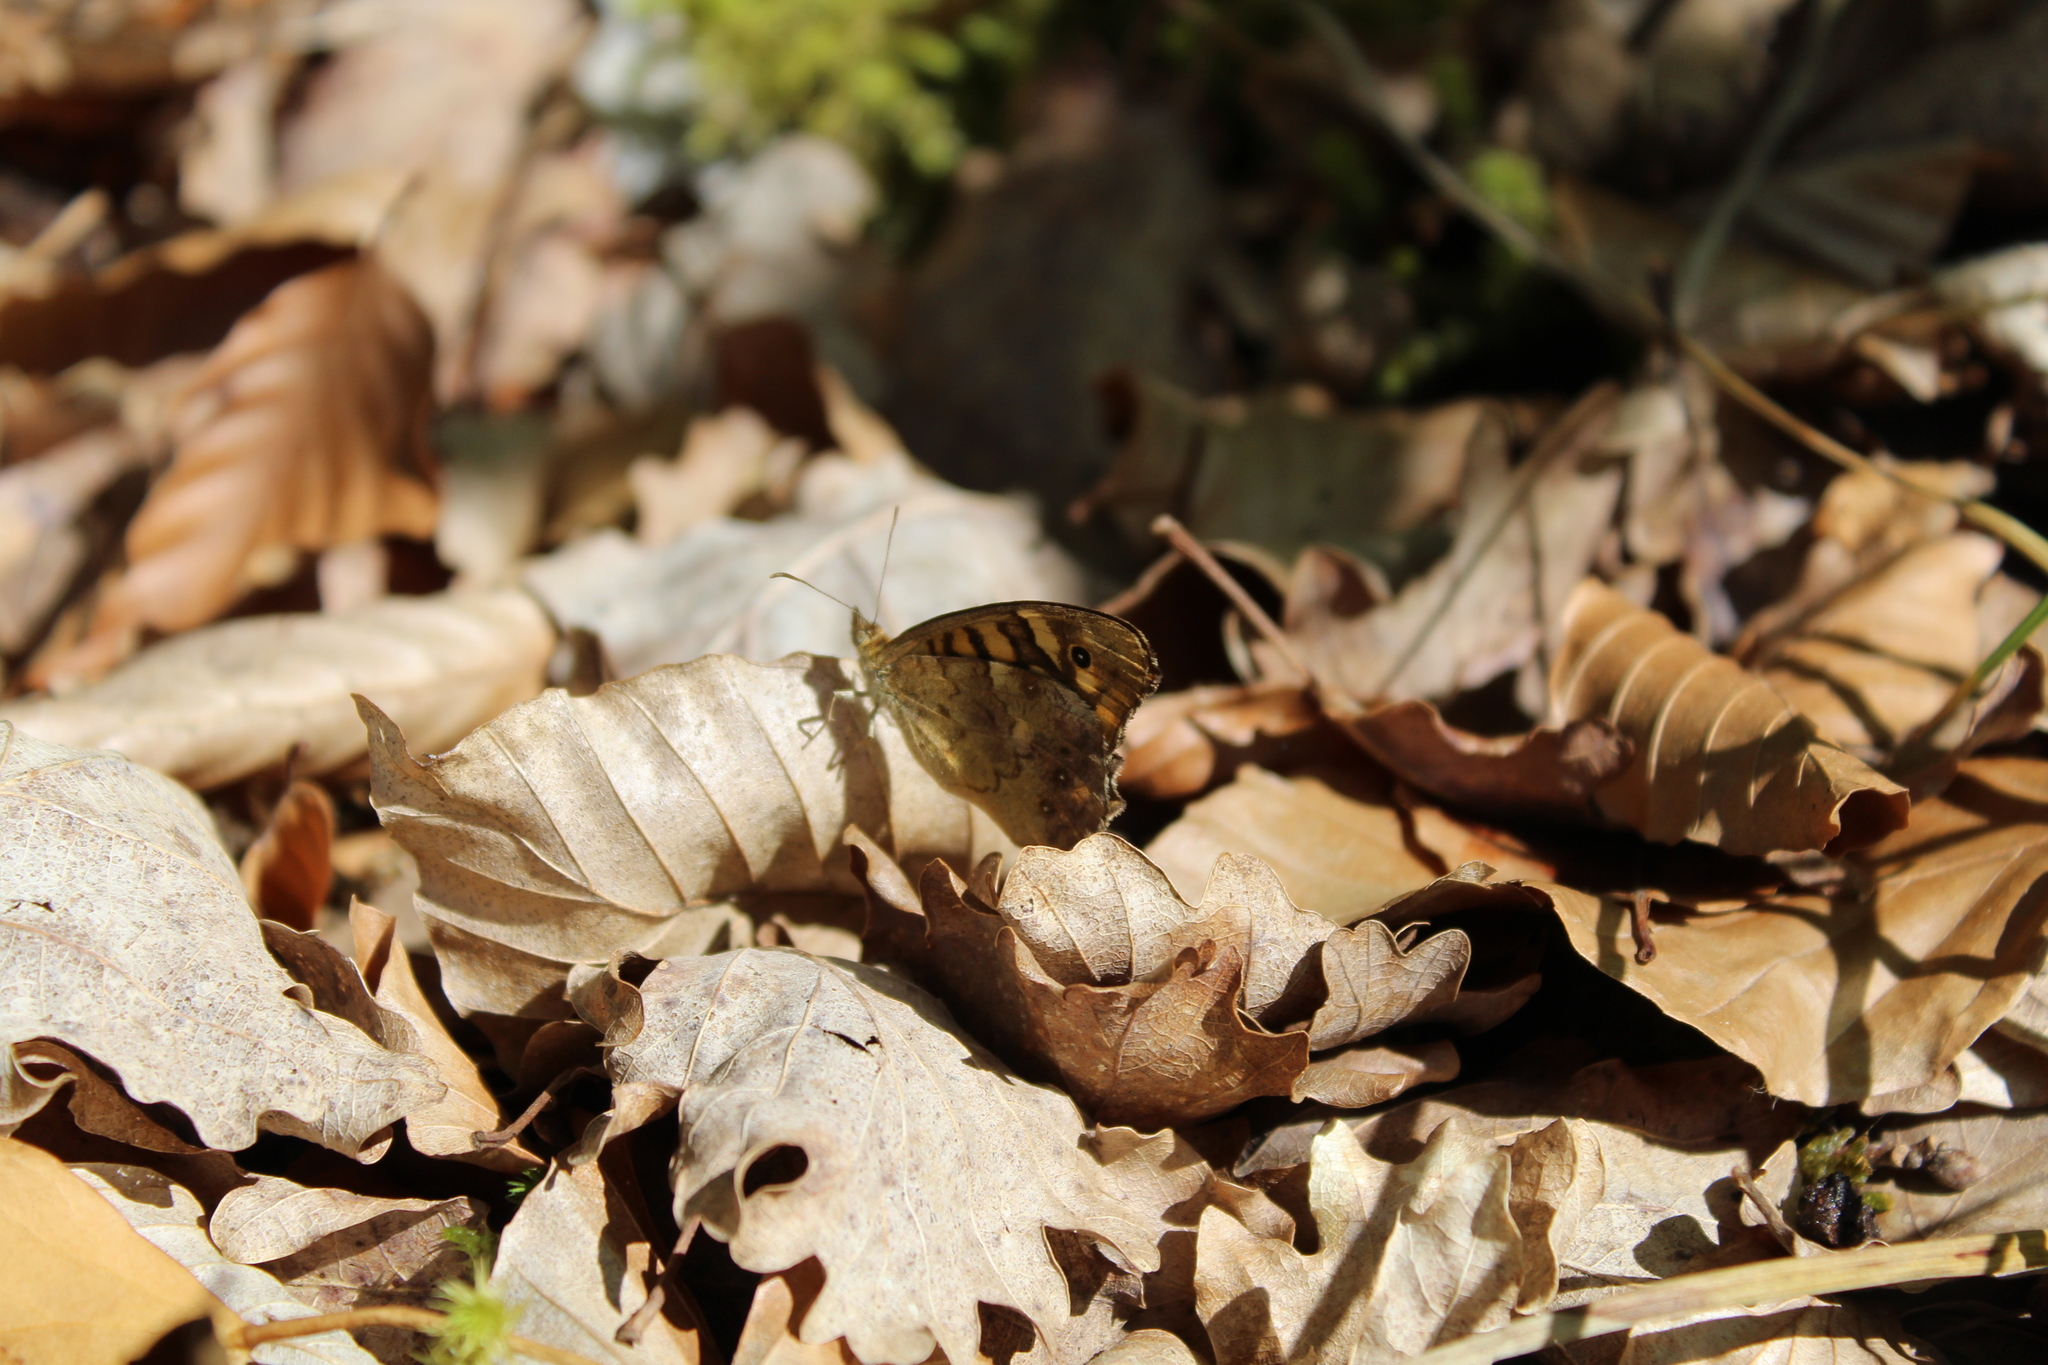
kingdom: Animalia
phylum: Arthropoda
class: Insecta
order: Lepidoptera
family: Nymphalidae
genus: Pararge
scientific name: Pararge aegeria
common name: Speckled wood
